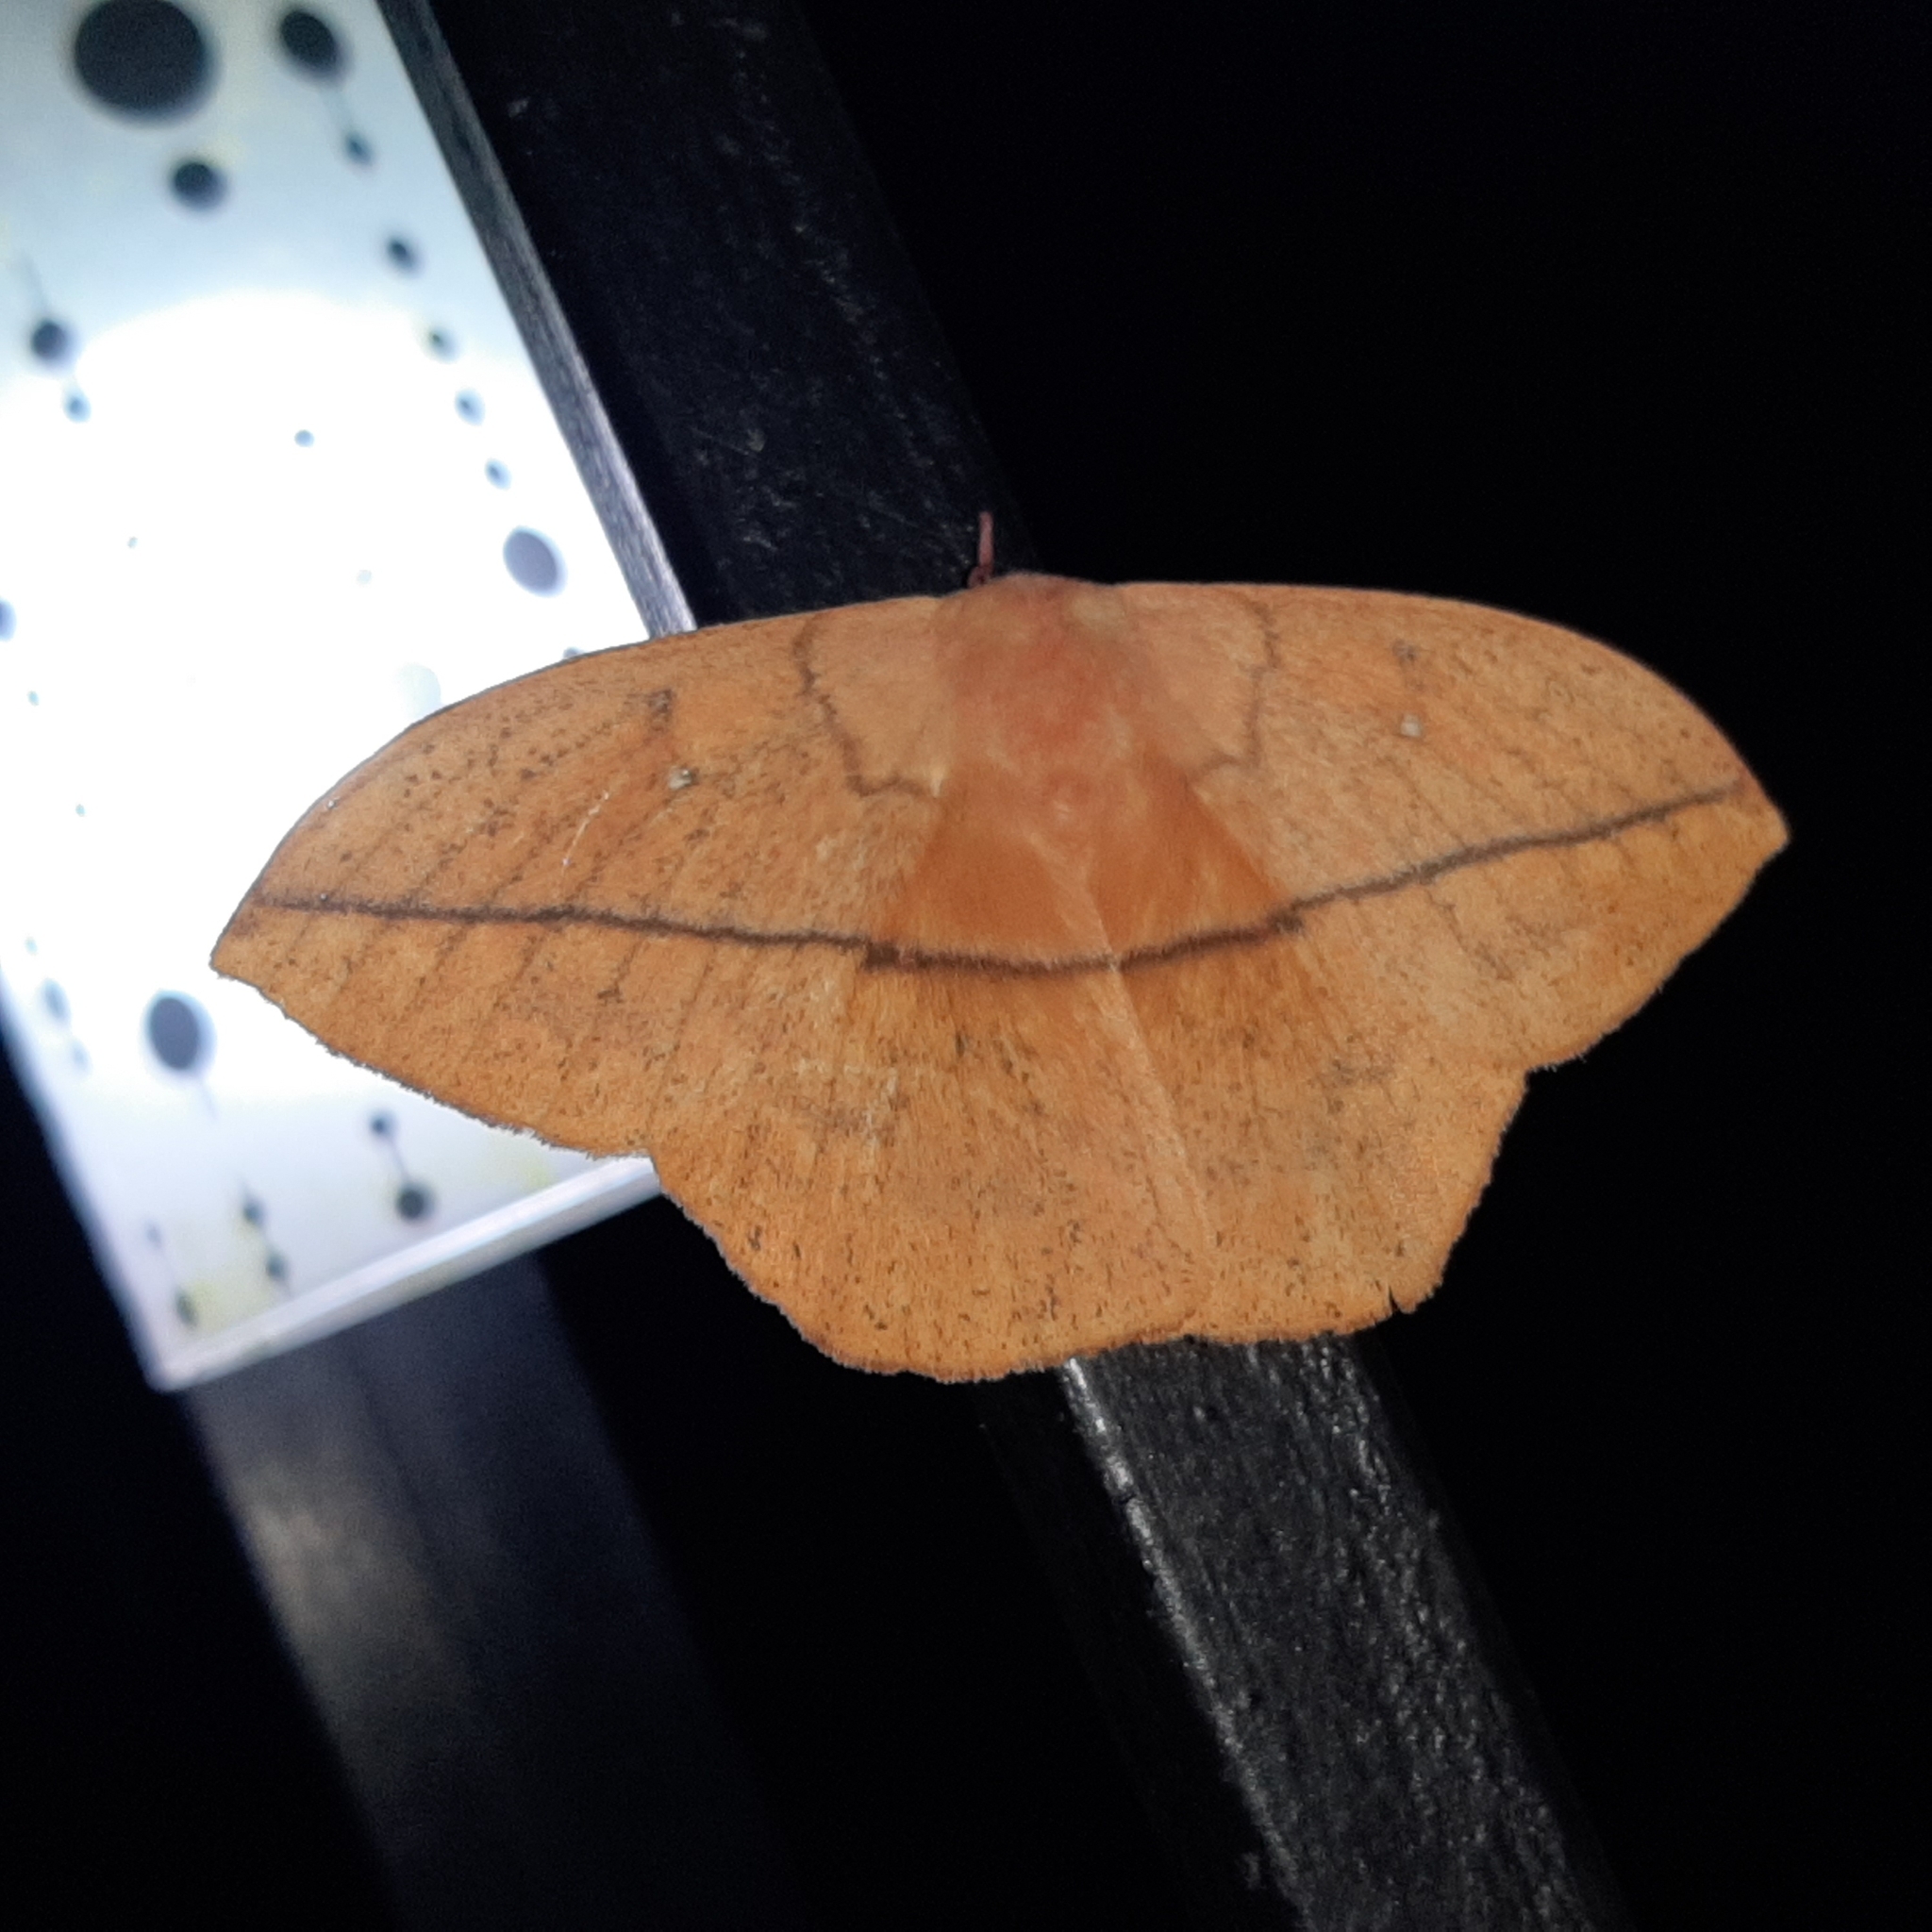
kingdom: Animalia
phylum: Arthropoda
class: Insecta
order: Lepidoptera
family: Saturniidae
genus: Lonomia
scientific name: Lonomia rufescens
